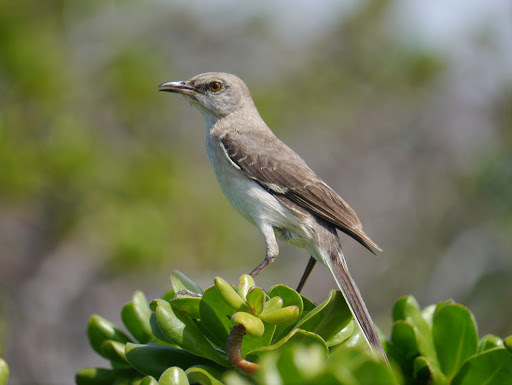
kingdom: Animalia
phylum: Chordata
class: Aves
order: Passeriformes
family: Mimidae
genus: Mimus
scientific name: Mimus polyglottos
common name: Northern mockingbird
